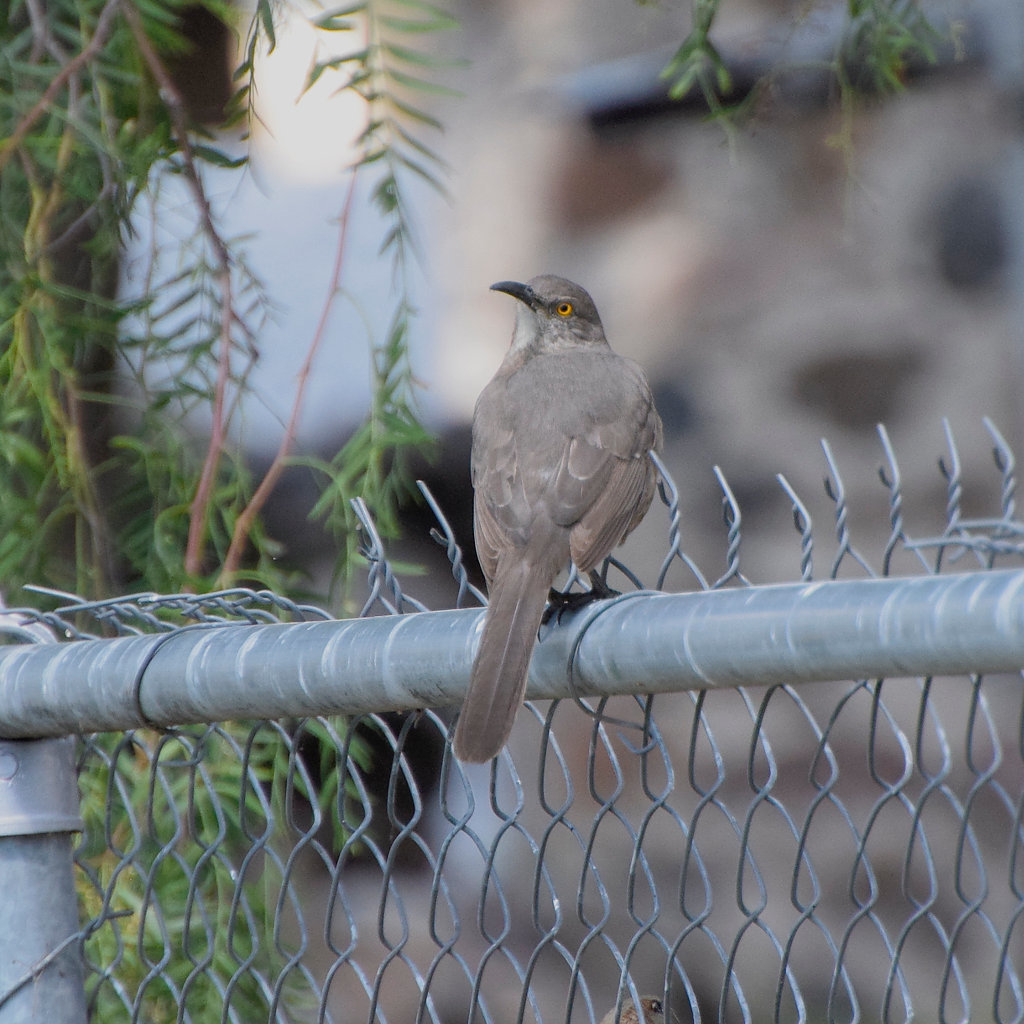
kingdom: Animalia
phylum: Chordata
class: Aves
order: Passeriformes
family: Mimidae
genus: Toxostoma
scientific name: Toxostoma curvirostre
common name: Curve-billed thrasher
